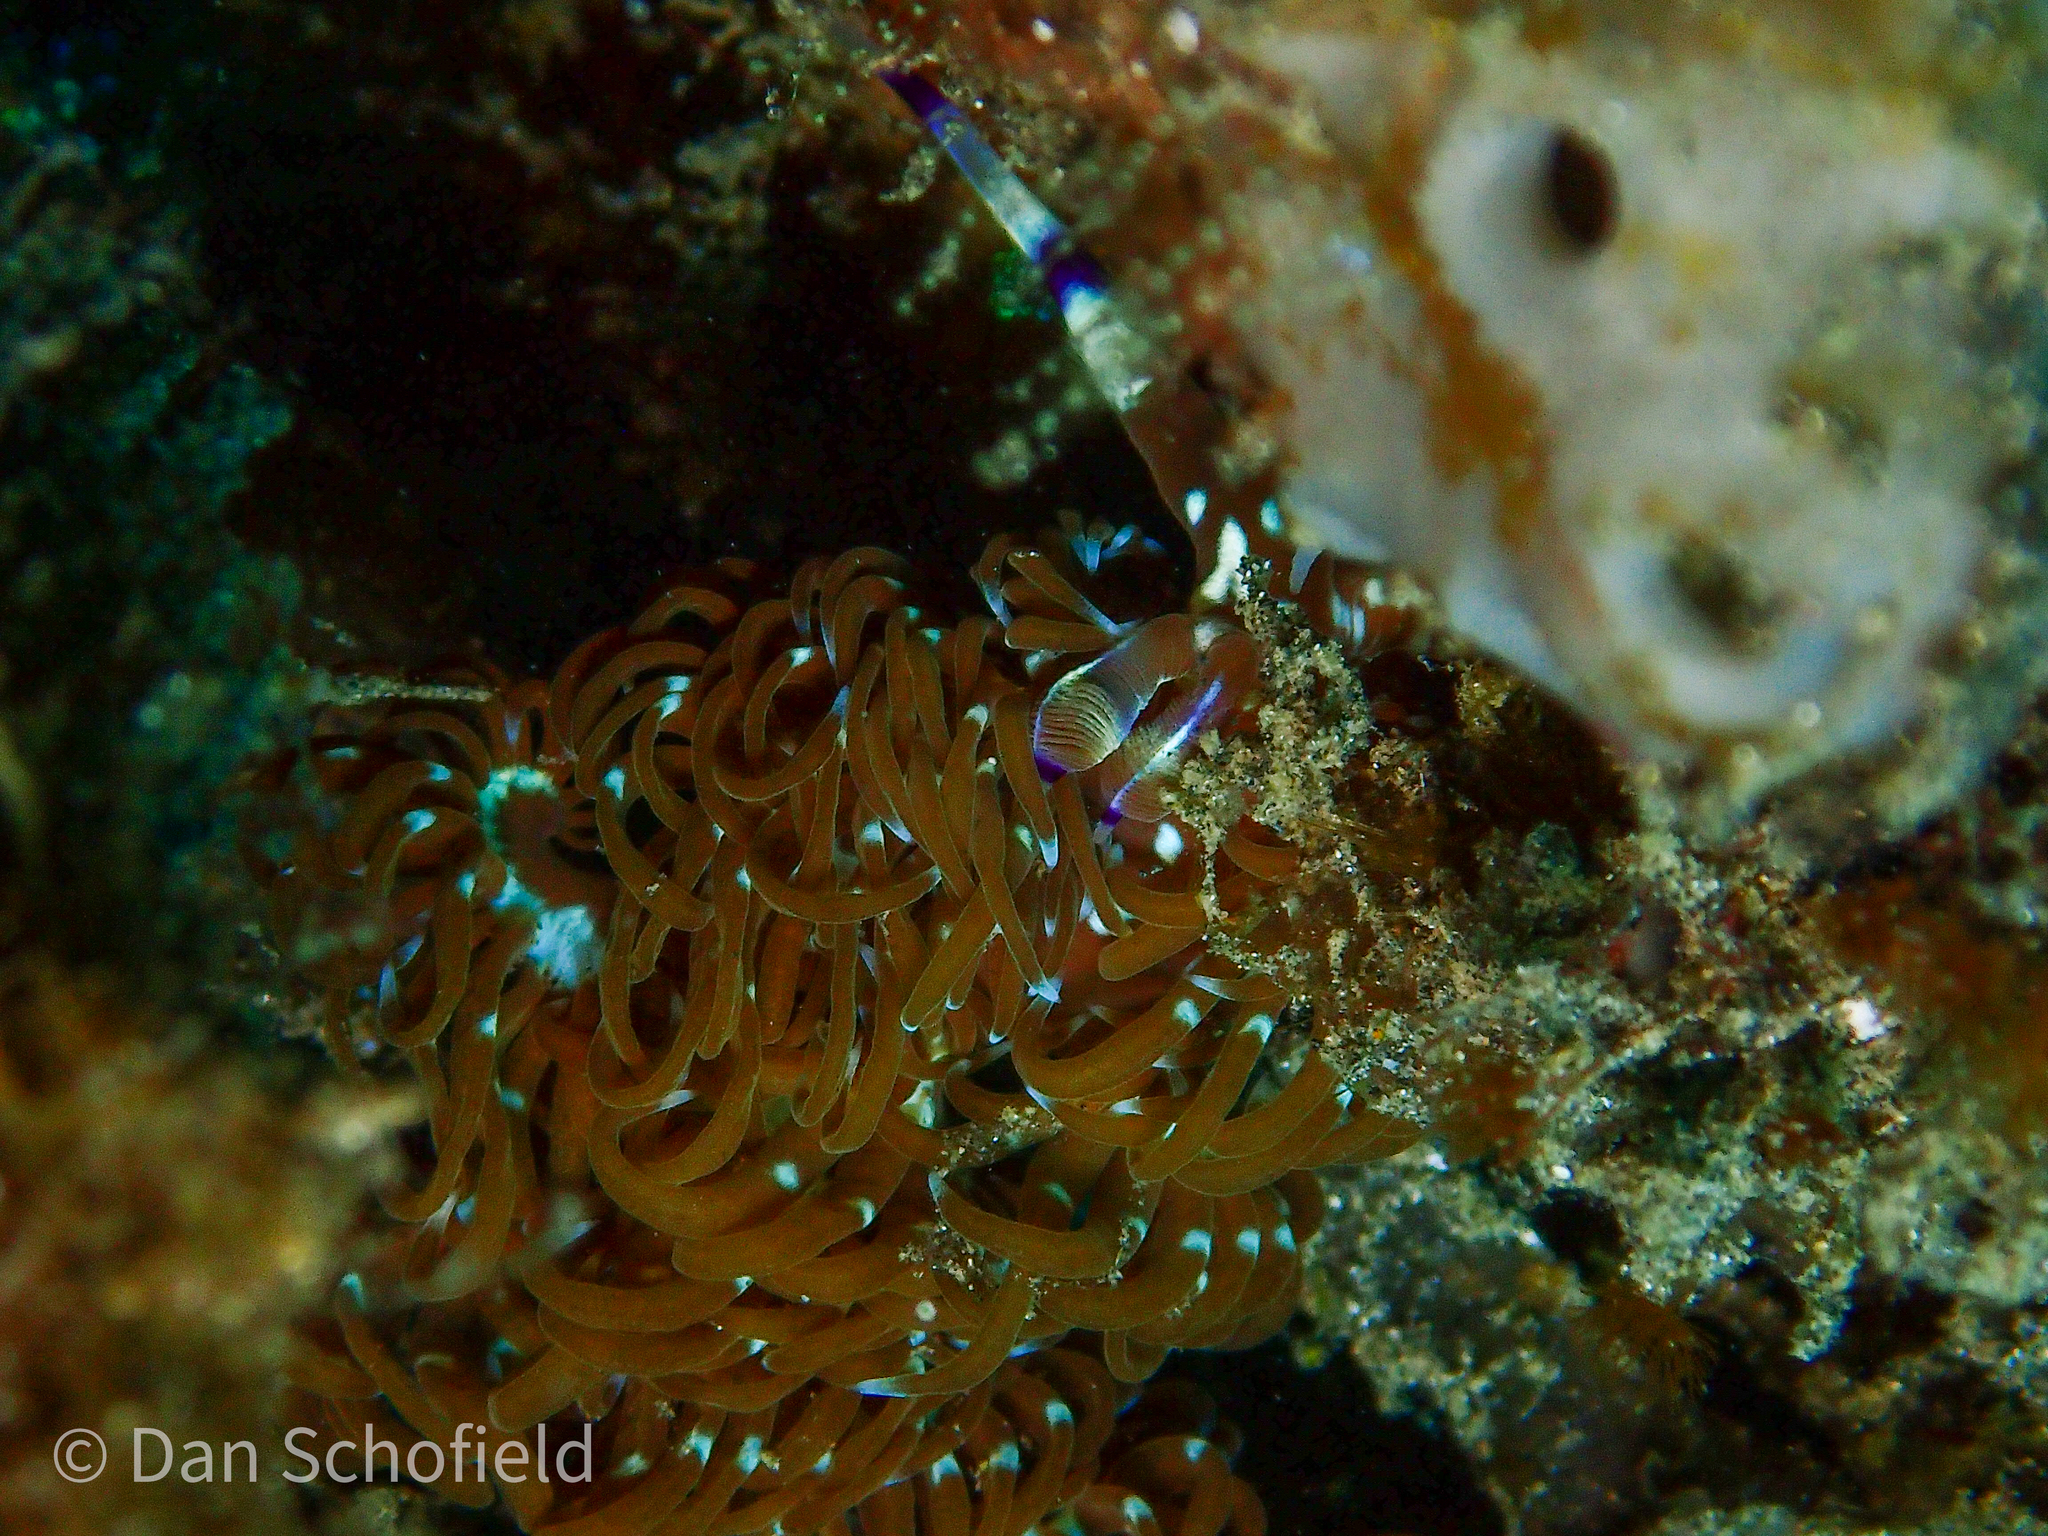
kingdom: Animalia
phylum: Mollusca
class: Gastropoda
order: Nudibranchia
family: Facelinidae
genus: Pteraeolidia
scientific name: Pteraeolidia semperi
